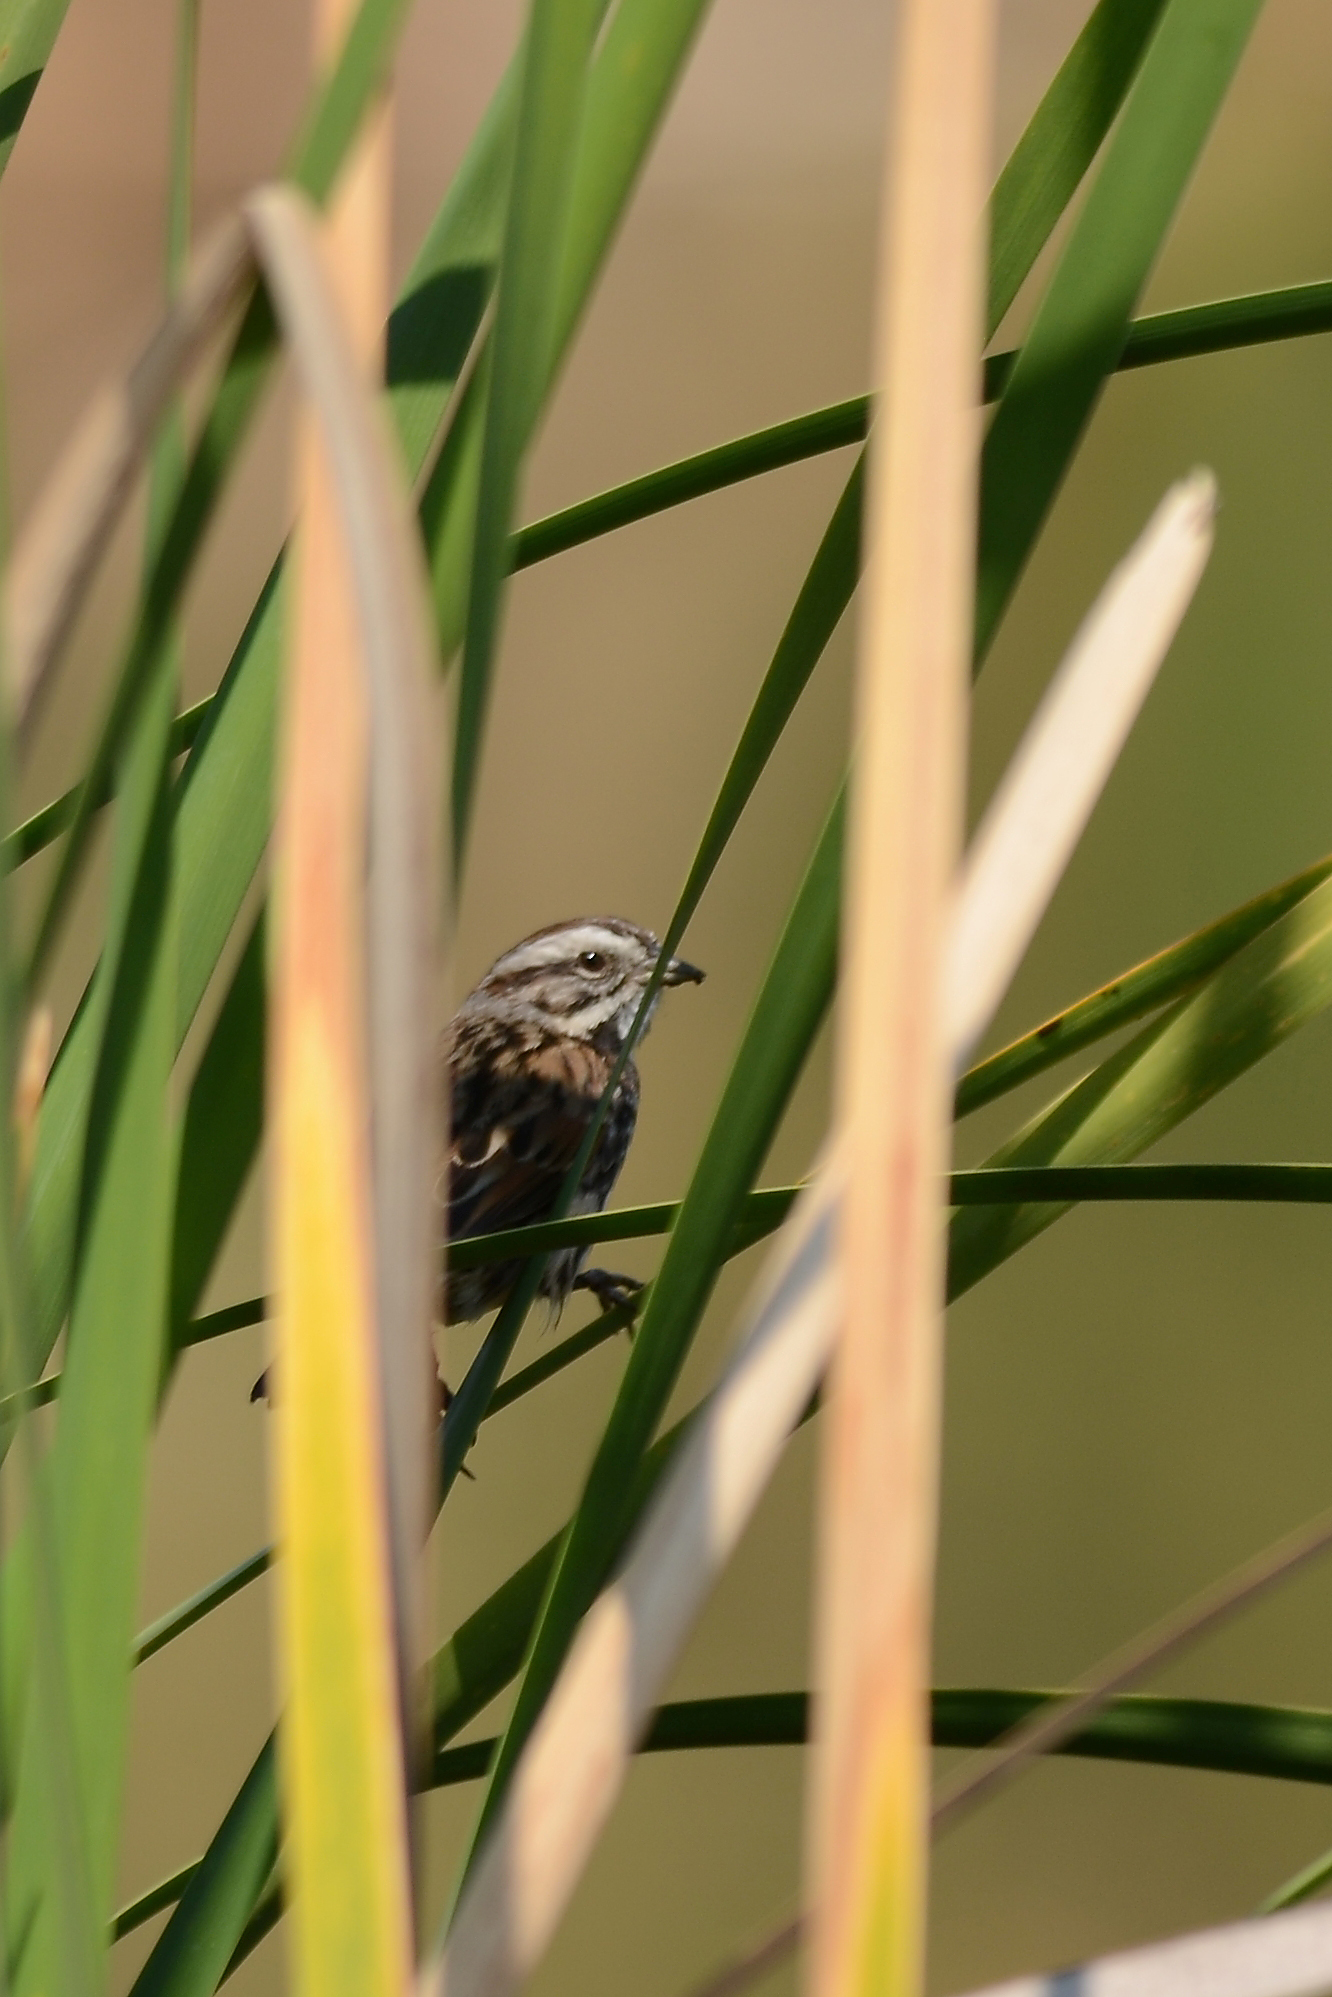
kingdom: Animalia
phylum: Chordata
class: Aves
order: Passeriformes
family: Passerellidae
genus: Melospiza
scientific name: Melospiza melodia
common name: Song sparrow
